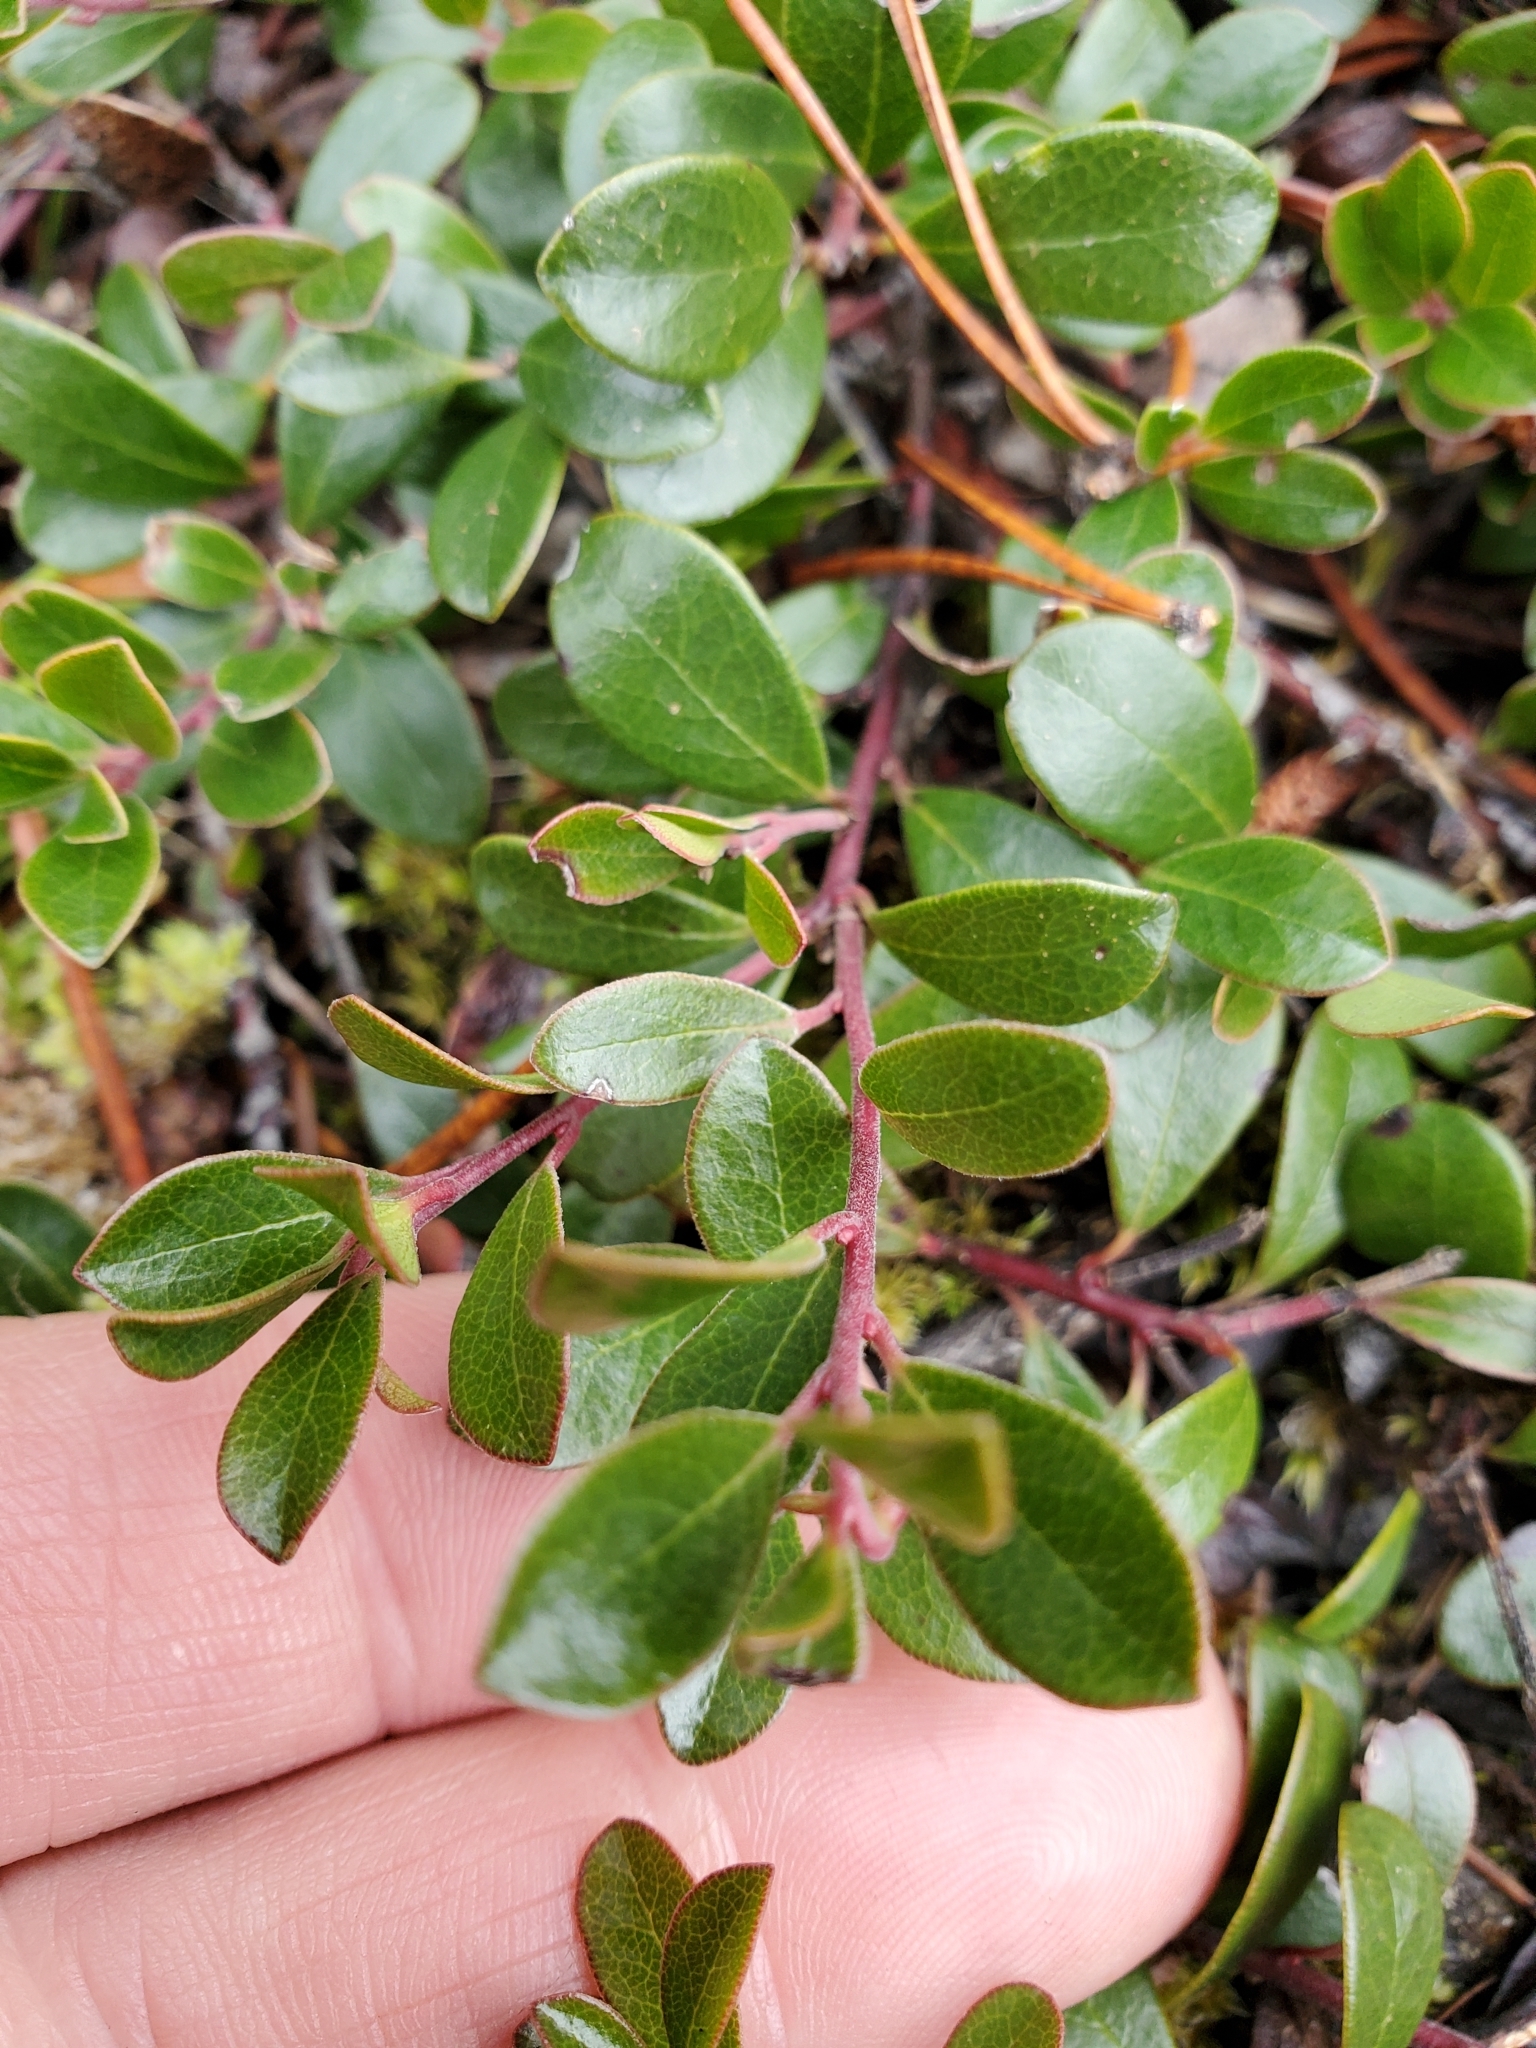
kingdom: Plantae
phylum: Tracheophyta
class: Magnoliopsida
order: Ericales
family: Ericaceae
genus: Arctostaphylos
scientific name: Arctostaphylos uva-ursi
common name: Bearberry
